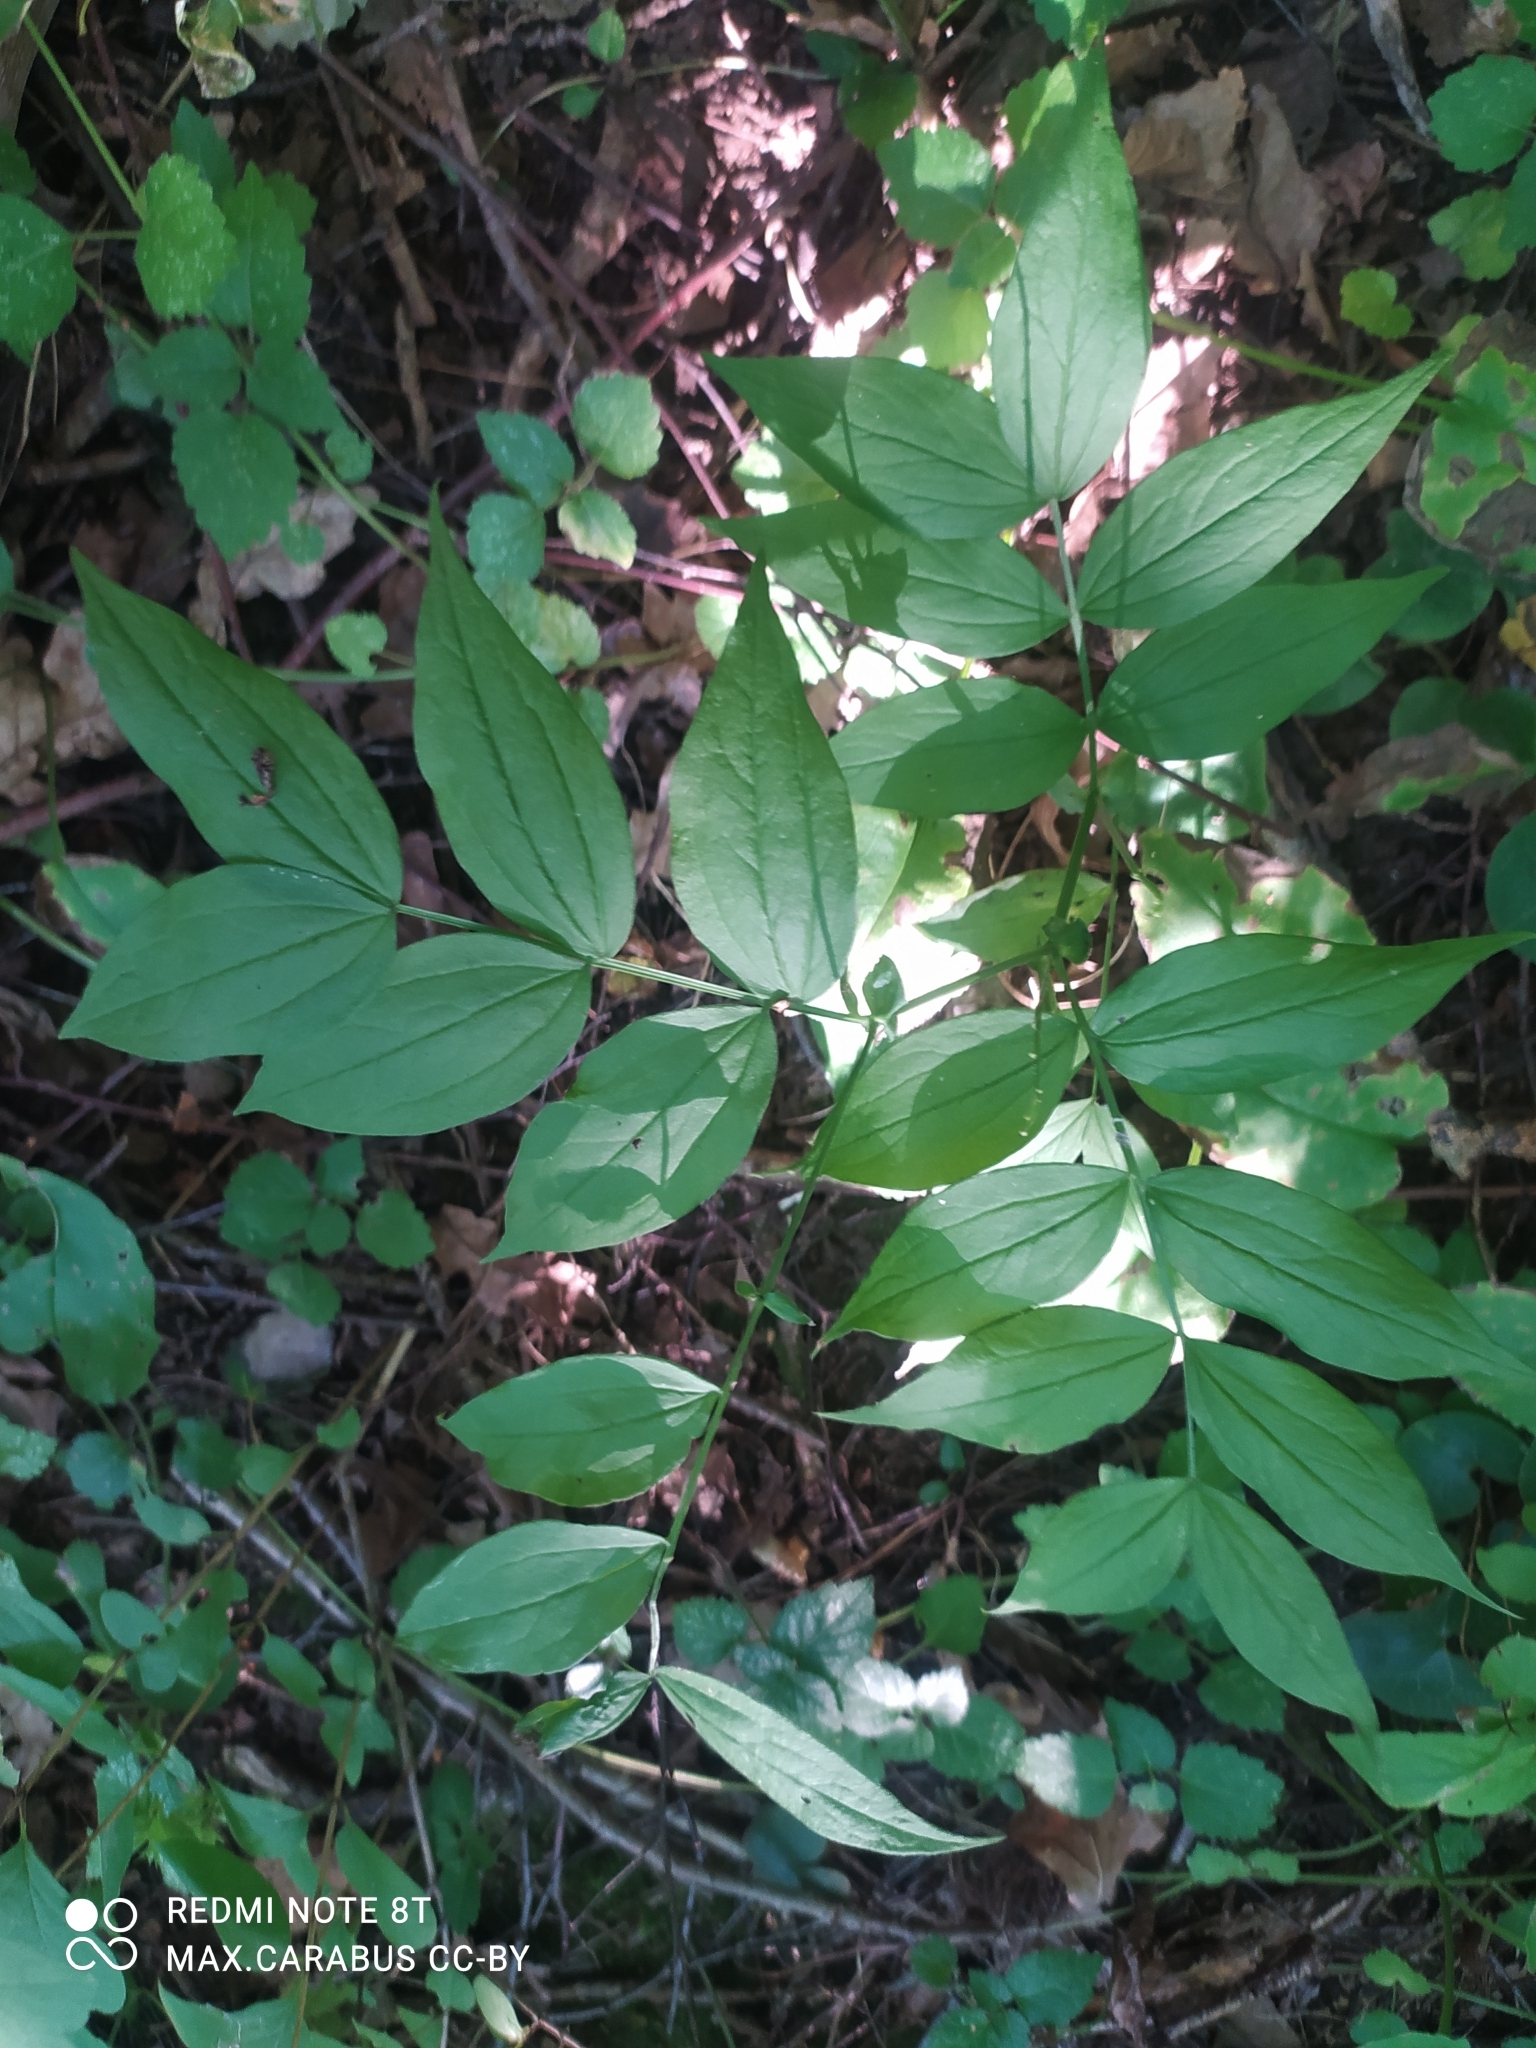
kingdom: Plantae
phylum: Tracheophyta
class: Magnoliopsida
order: Fabales
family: Fabaceae
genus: Lathyrus
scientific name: Lathyrus vernus
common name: Spring pea
